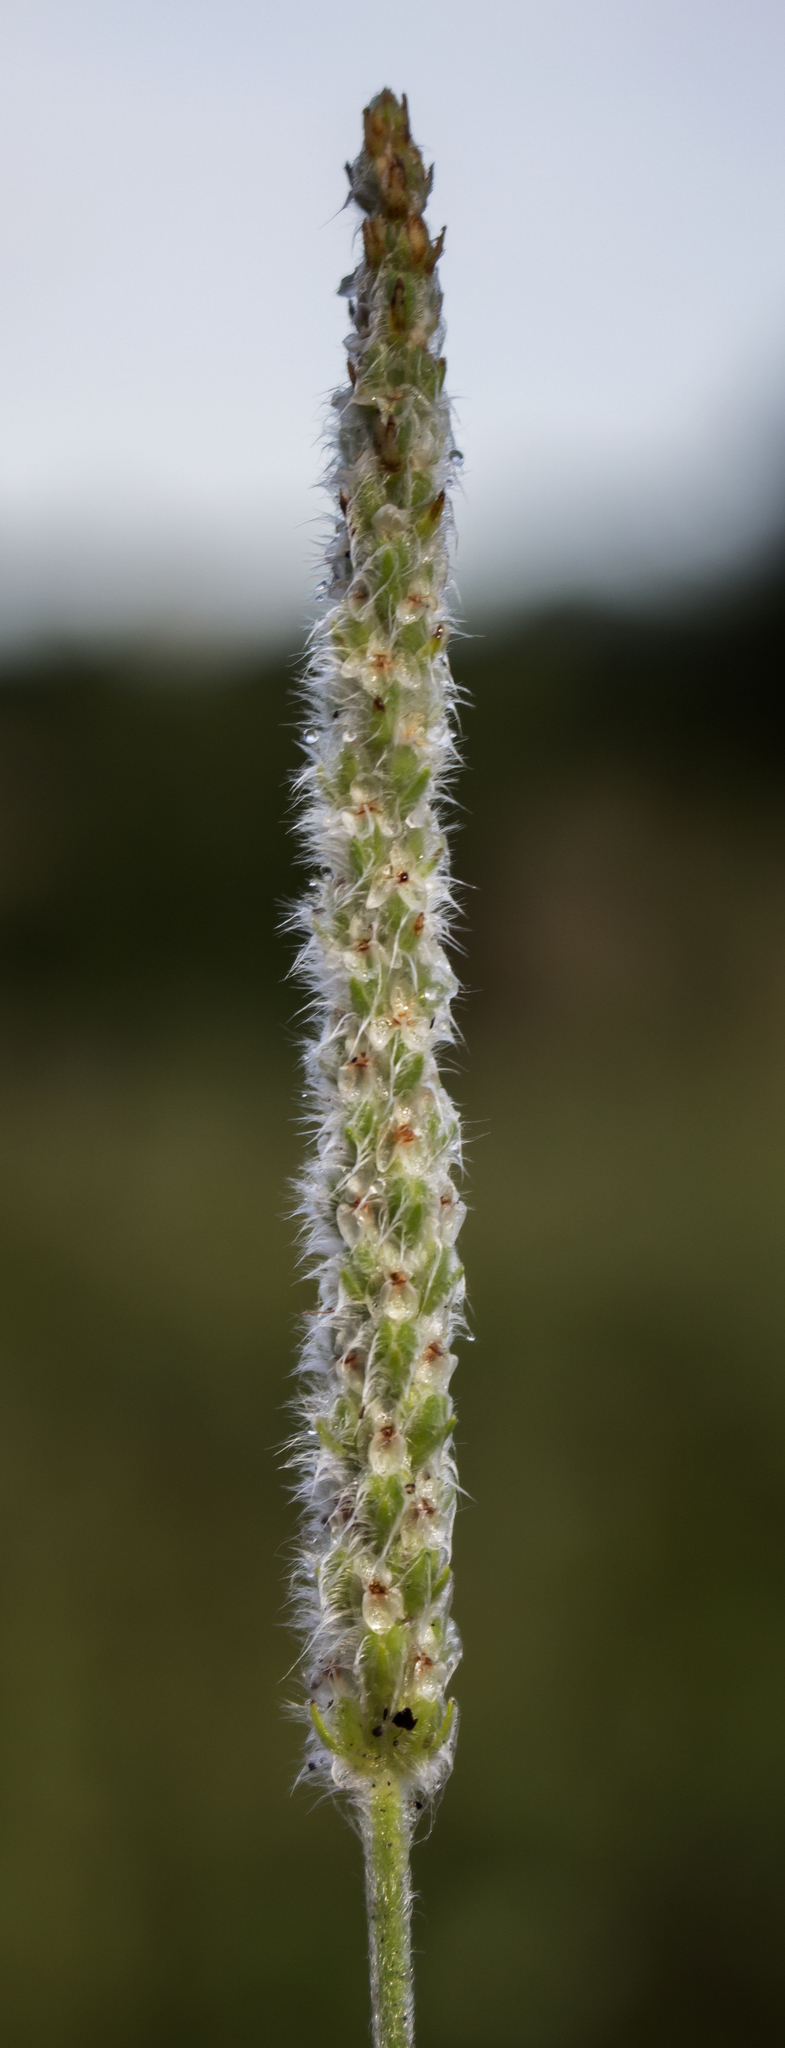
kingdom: Plantae
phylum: Tracheophyta
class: Magnoliopsida
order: Lamiales
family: Plantaginaceae
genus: Plantago
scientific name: Plantago patagonica
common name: Patagonia indian-wheat
